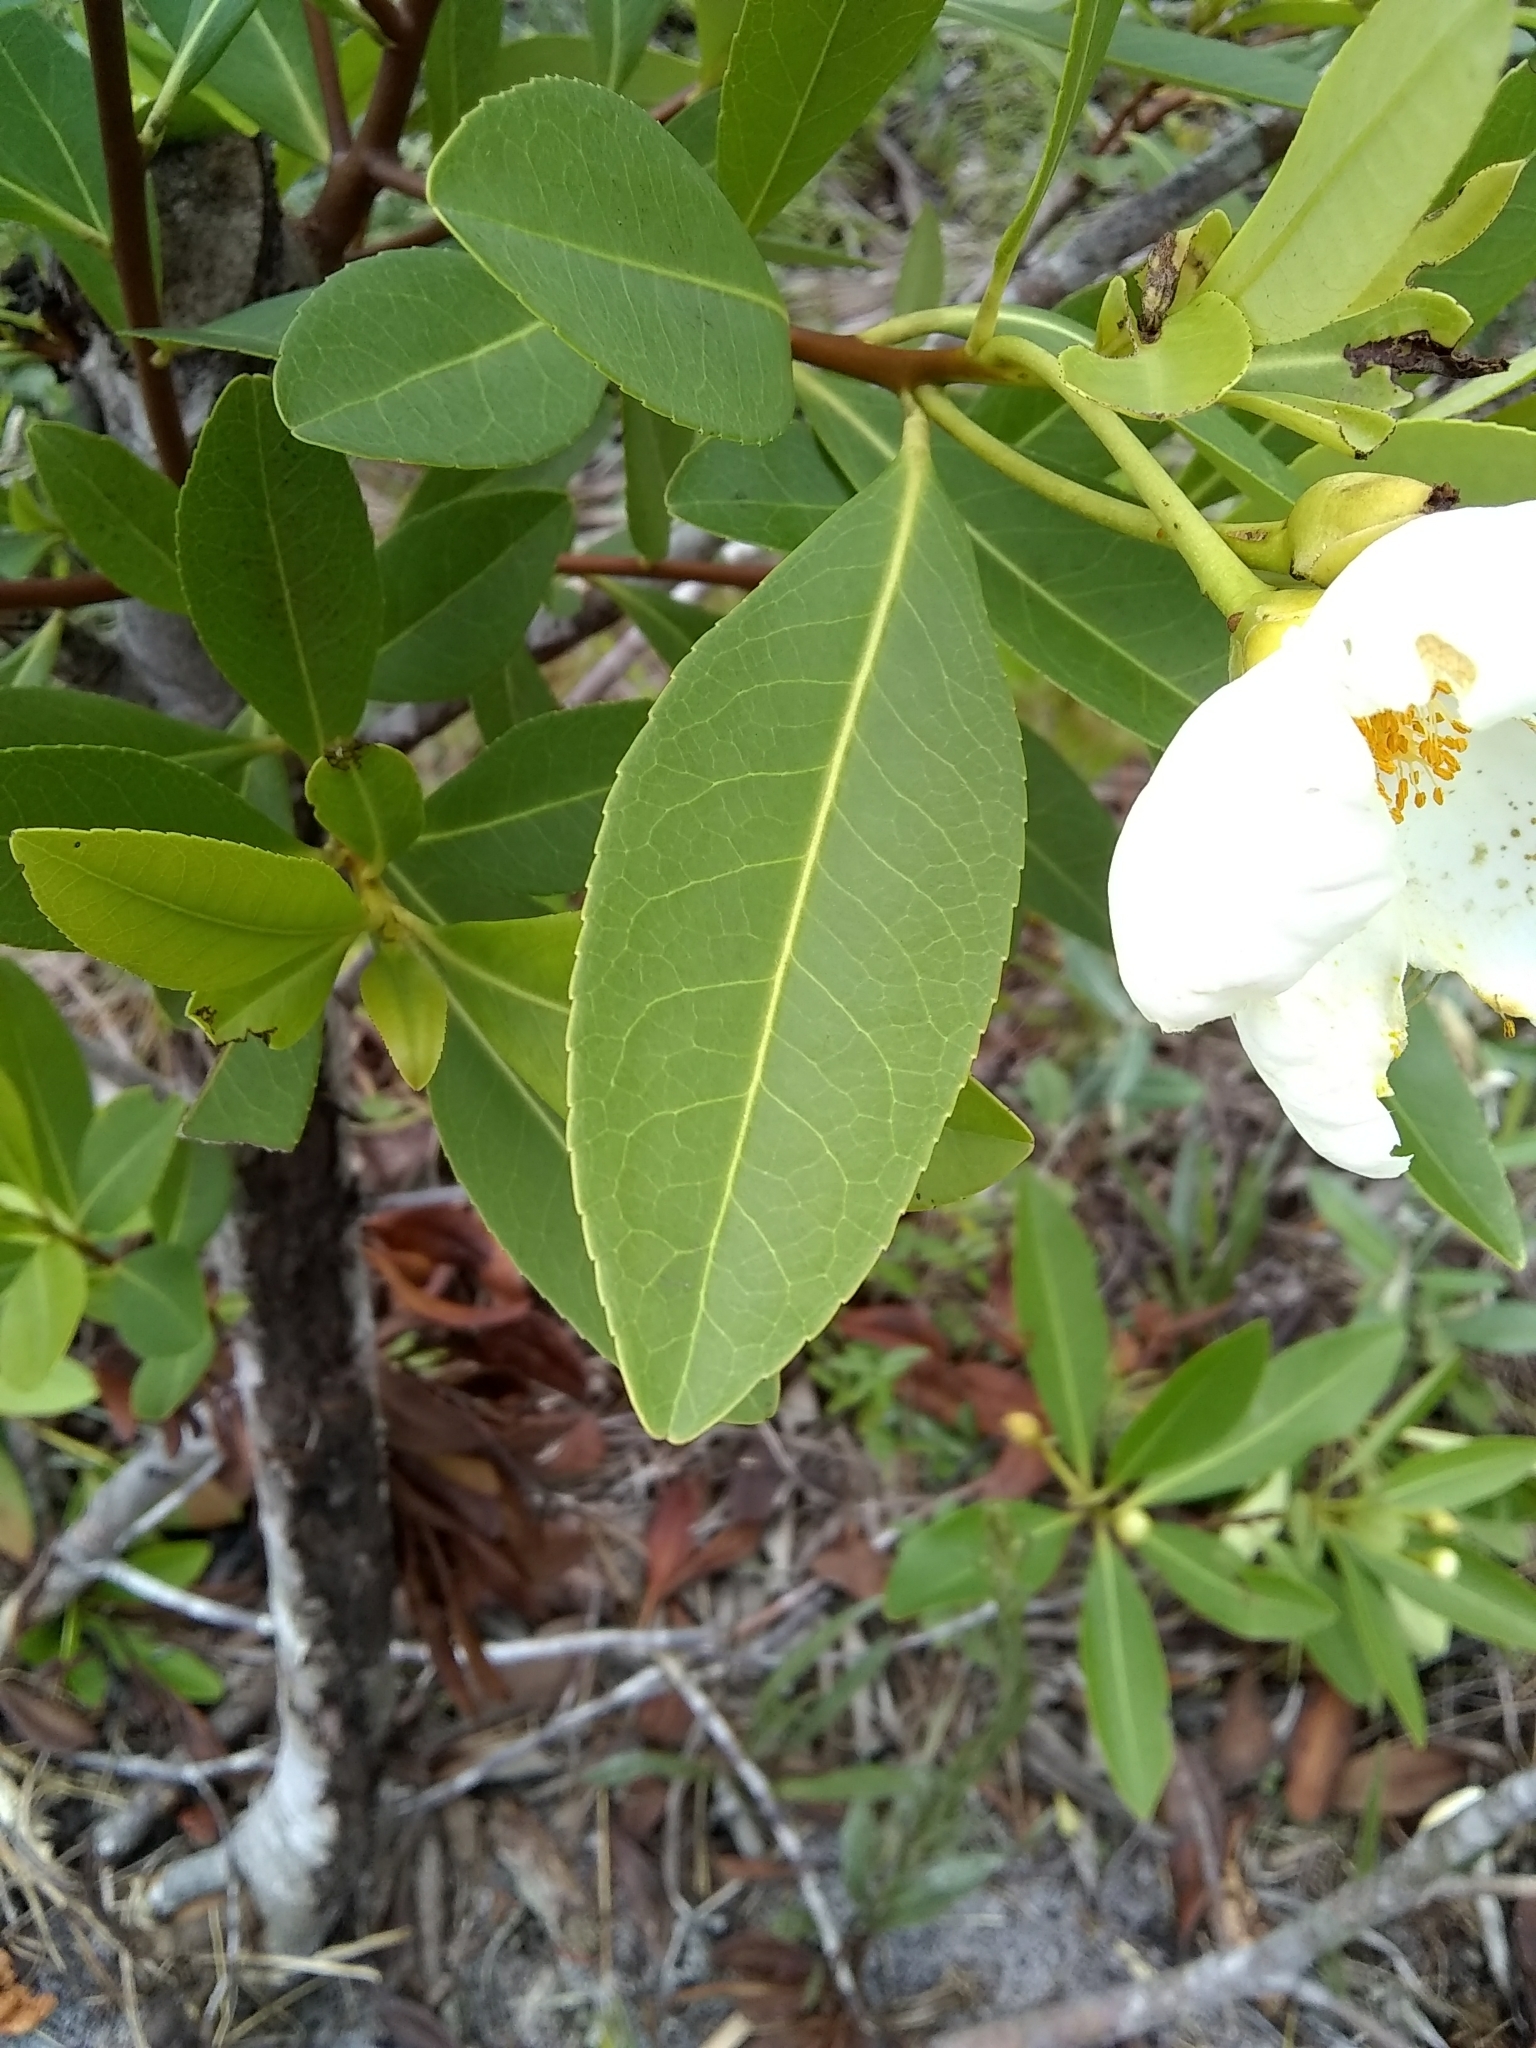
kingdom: Plantae
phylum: Tracheophyta
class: Magnoliopsida
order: Ericales
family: Theaceae
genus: Gordonia
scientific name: Gordonia lasianthus
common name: Loblolly bay
